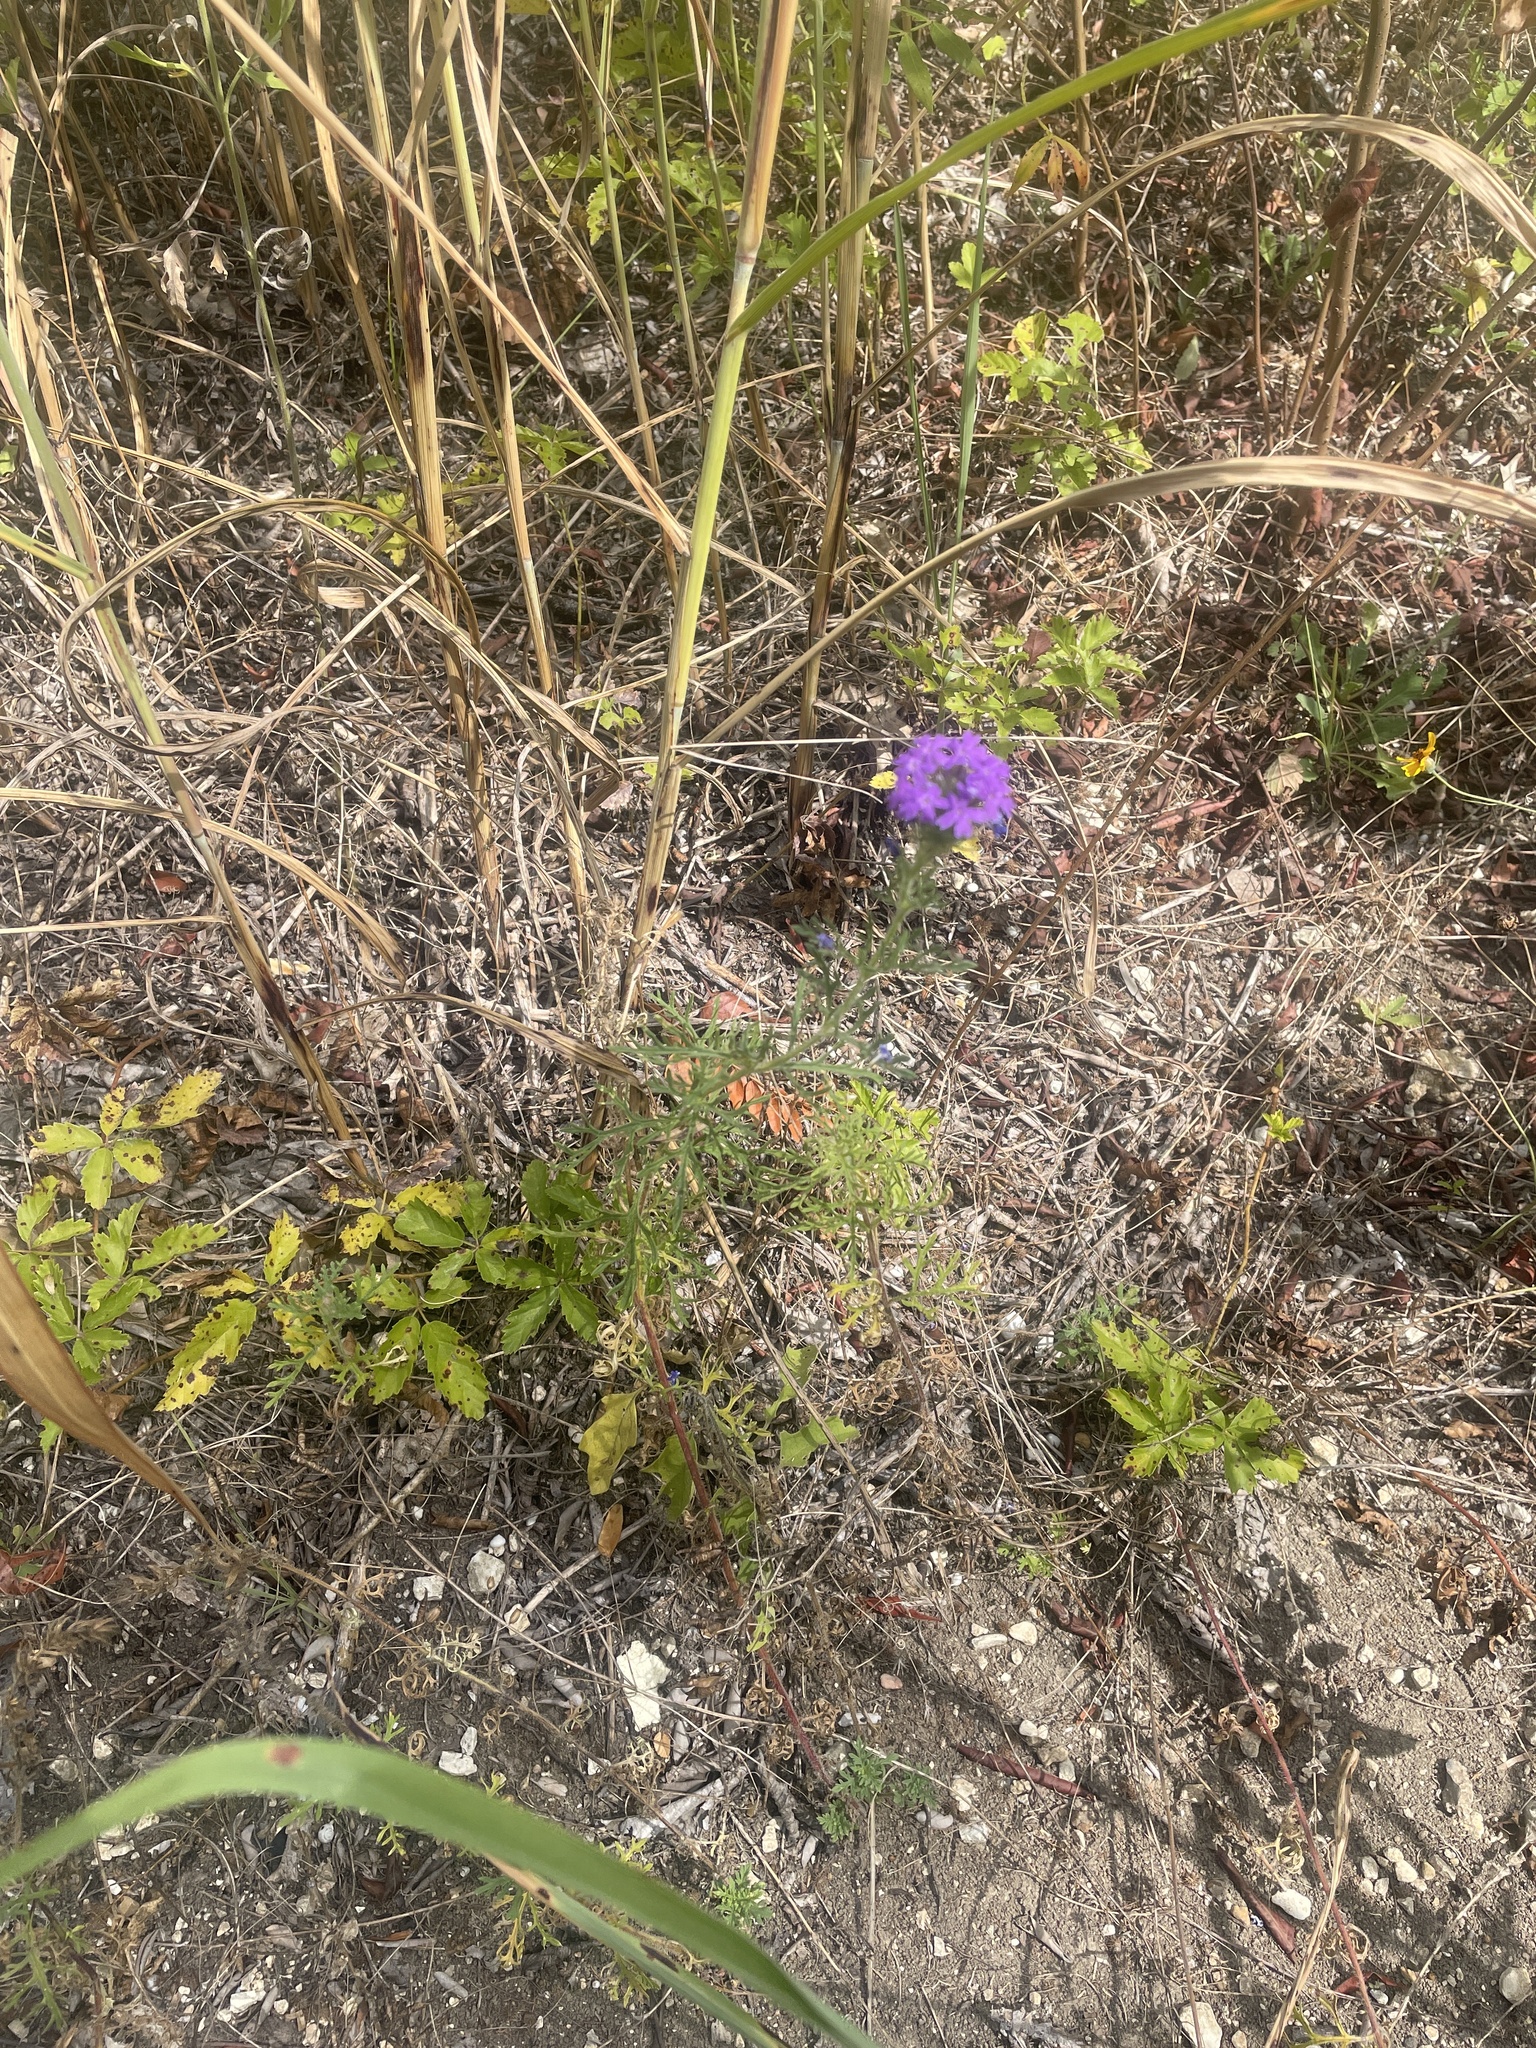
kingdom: Plantae
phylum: Tracheophyta
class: Magnoliopsida
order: Lamiales
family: Verbenaceae
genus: Verbena
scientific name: Verbena bipinnatifida
